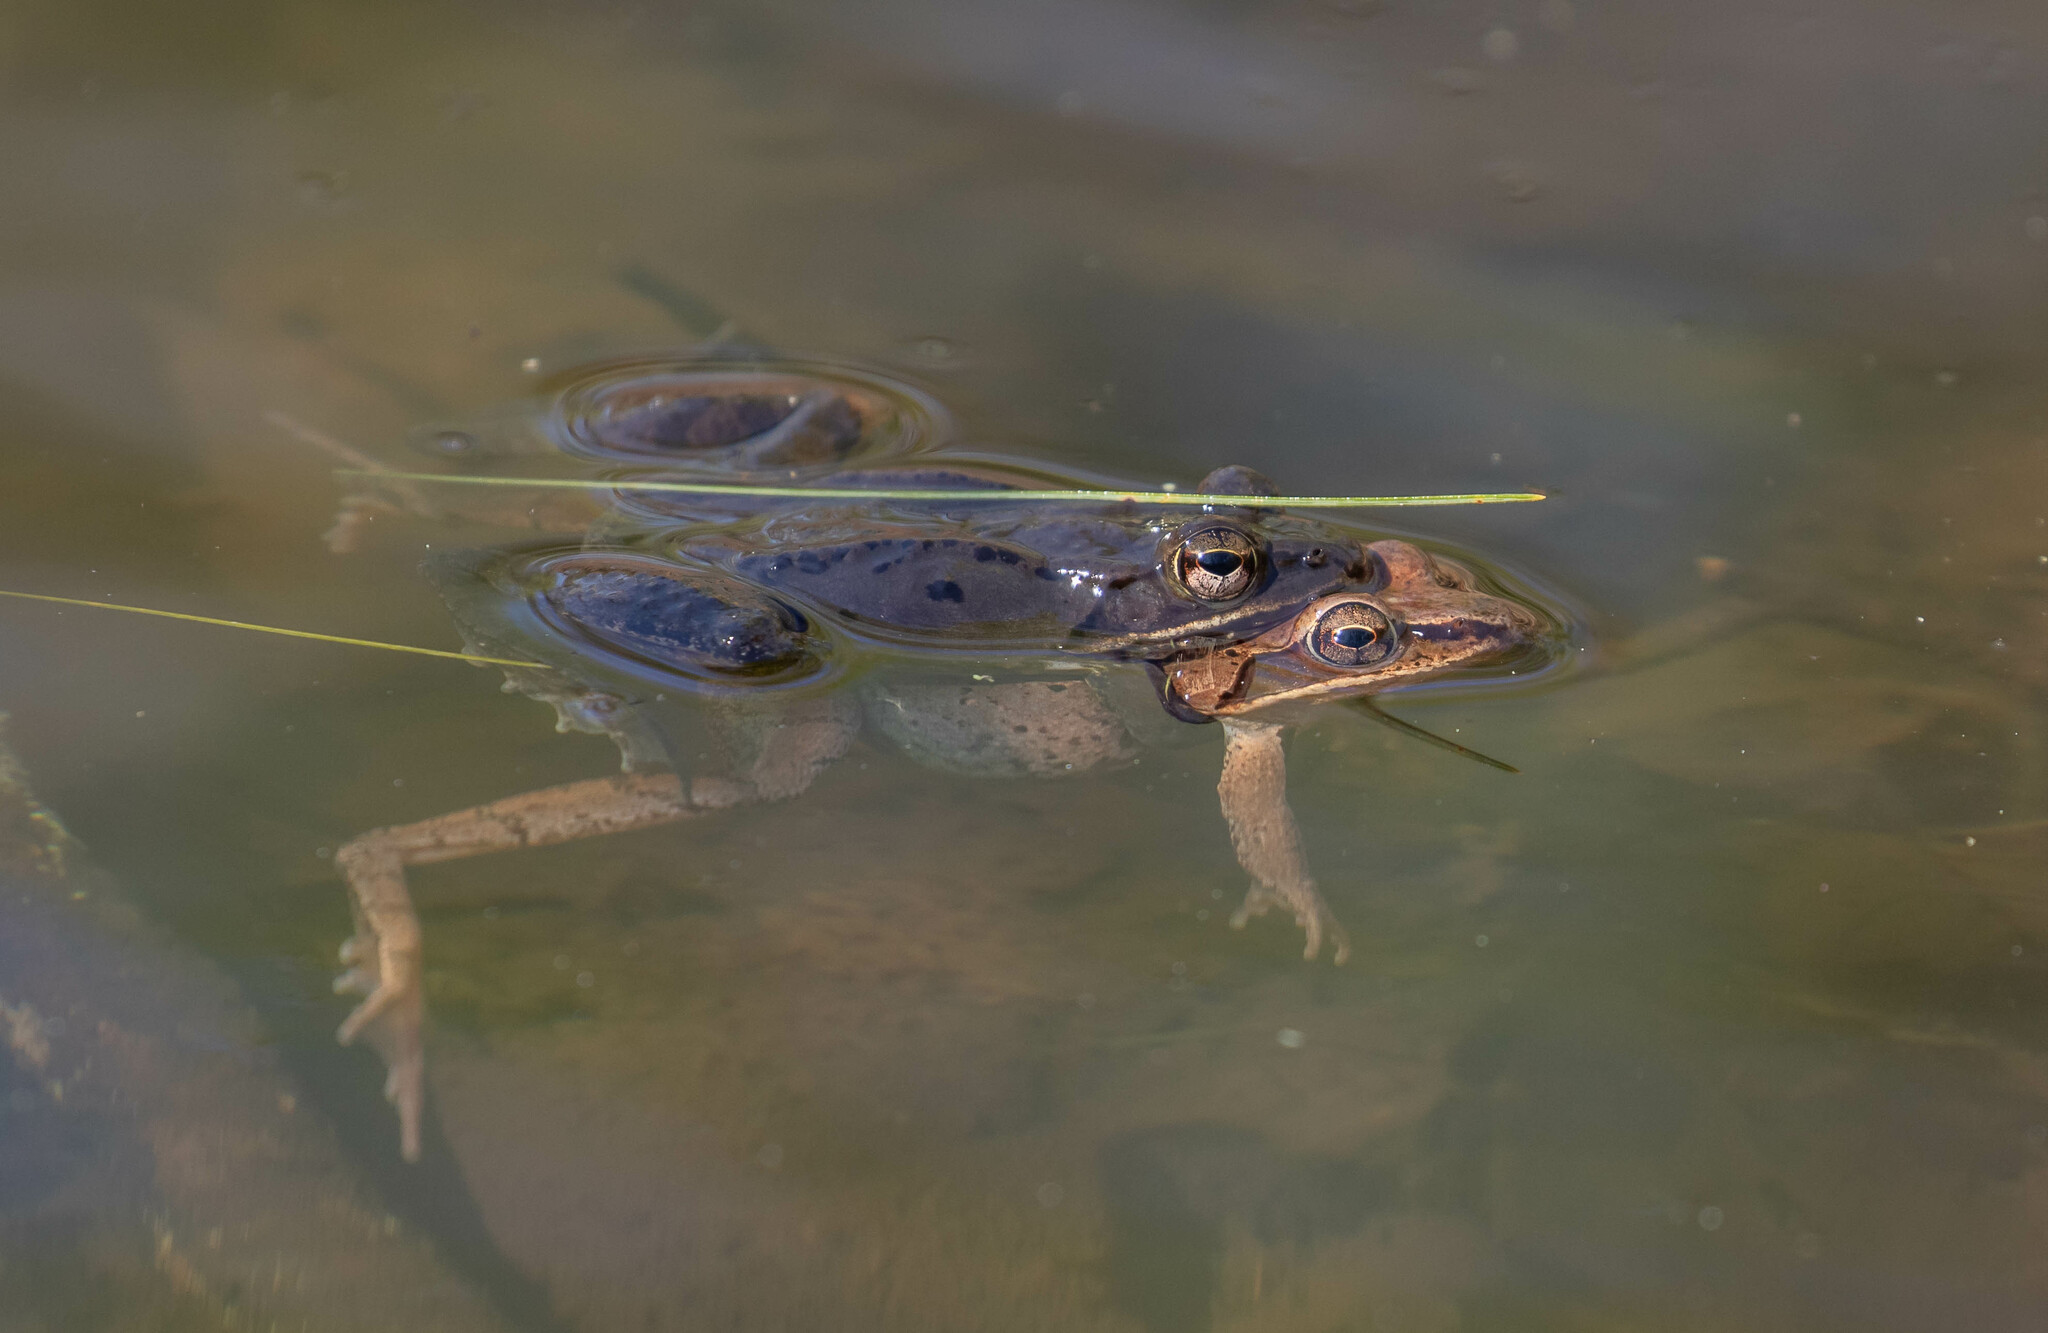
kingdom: Animalia
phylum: Chordata
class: Amphibia
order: Anura
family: Ranidae
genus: Lithobates
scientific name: Lithobates sylvaticus
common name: Wood frog
